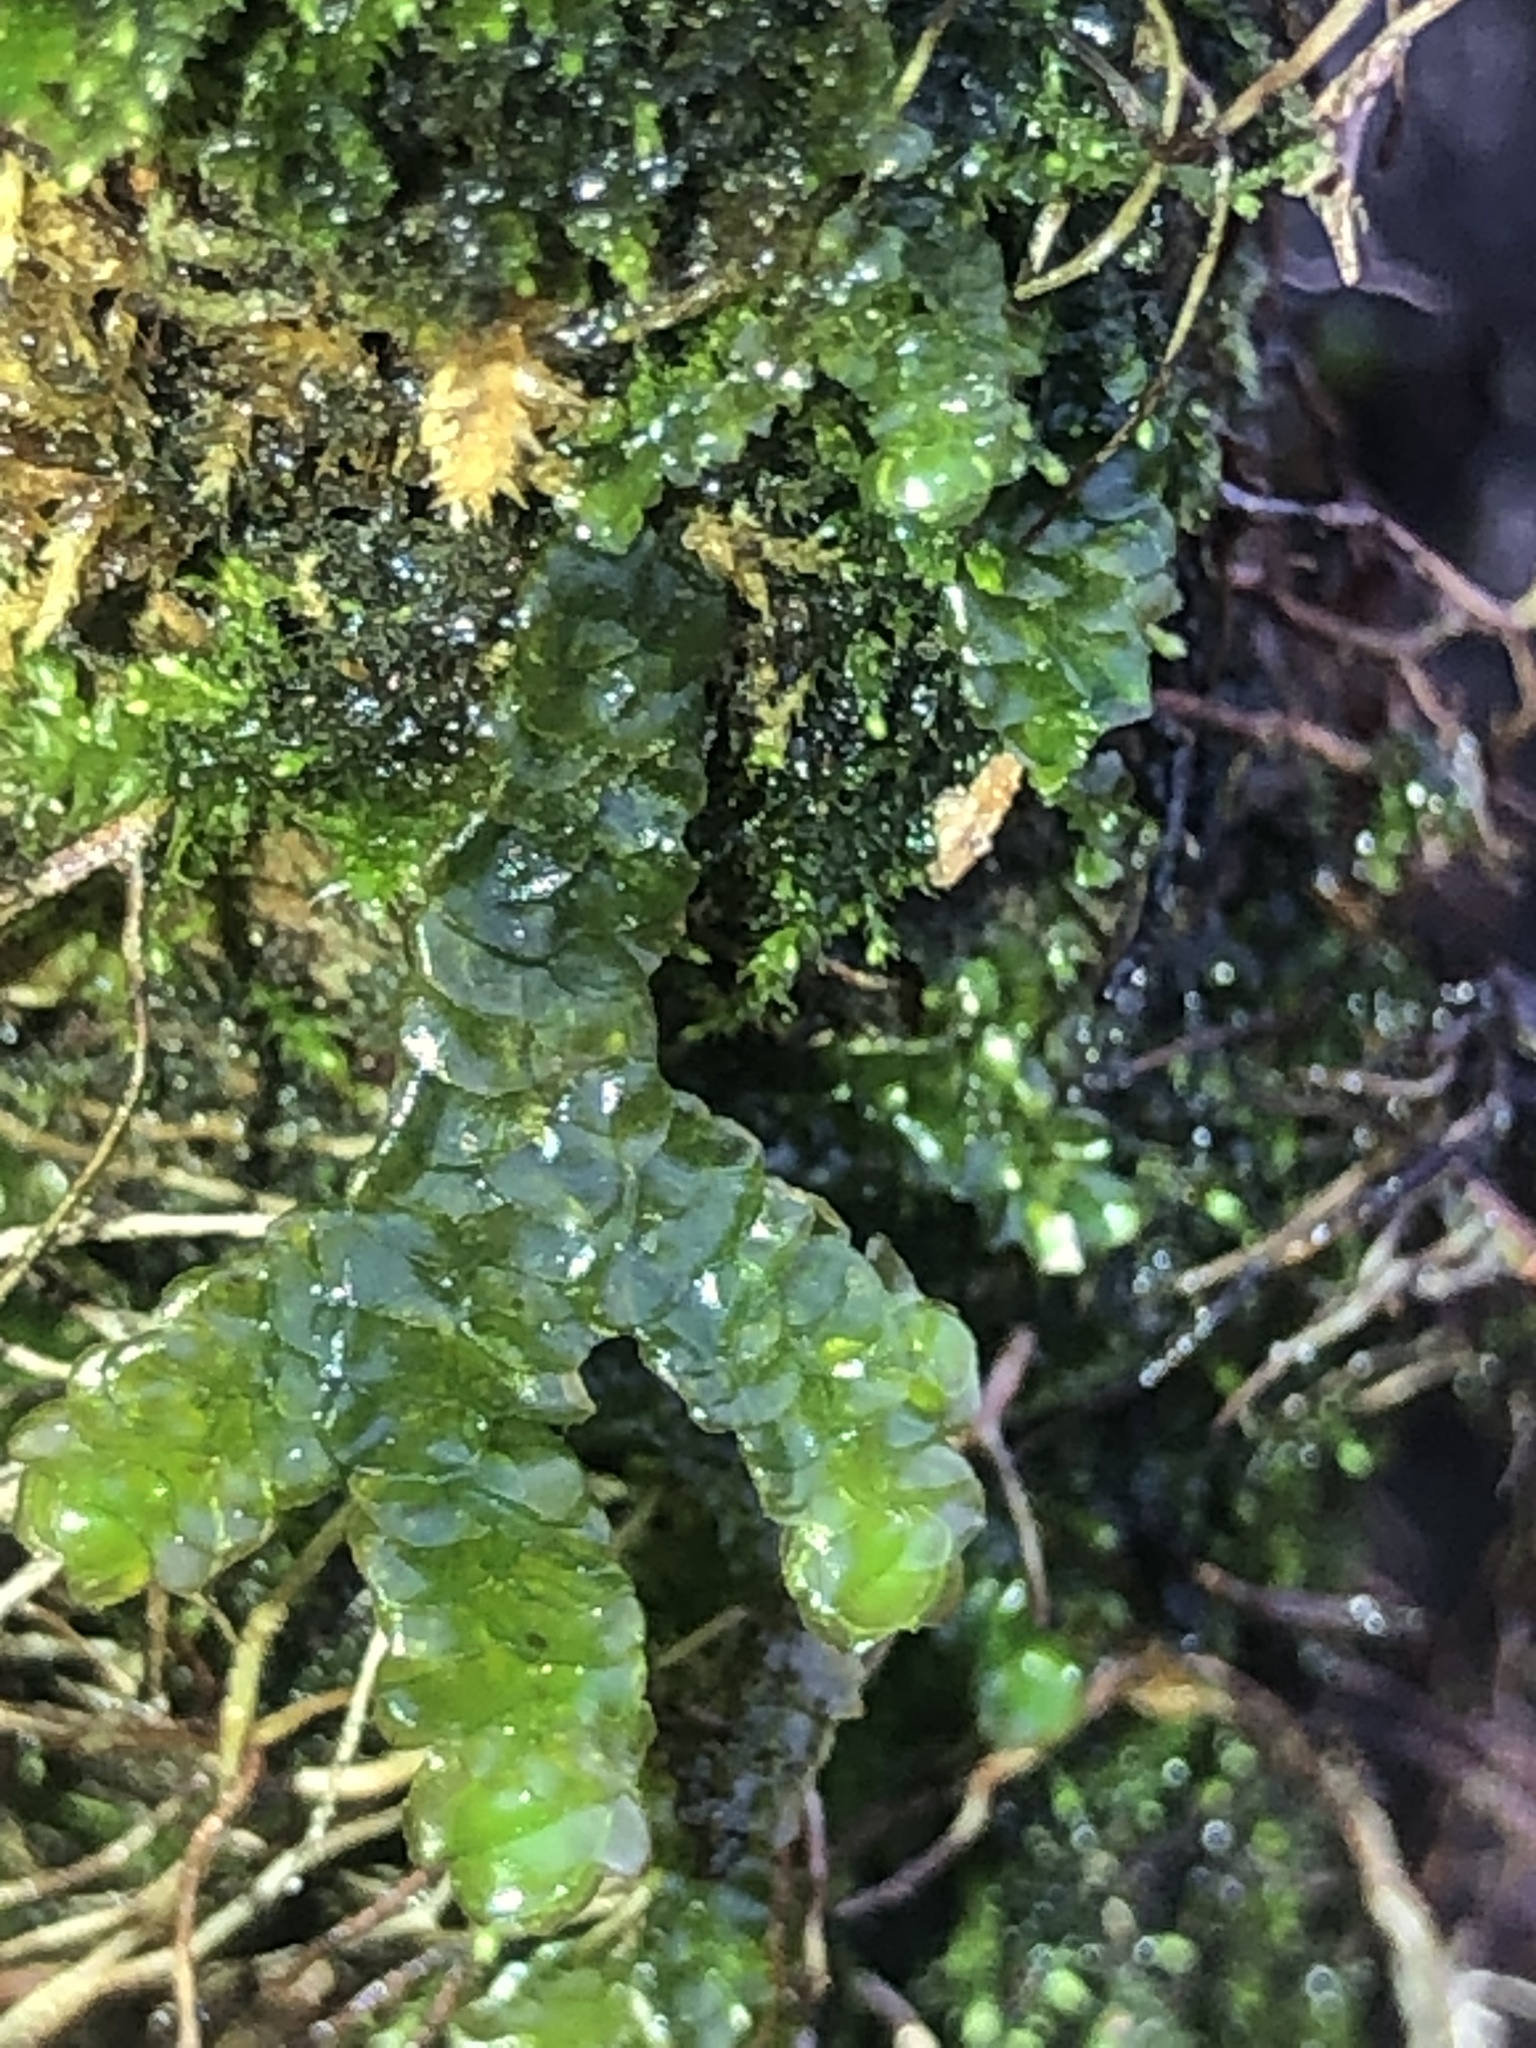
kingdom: Plantae
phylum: Marchantiophyta
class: Jungermanniopsida
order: Porellales
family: Porellaceae
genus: Porella
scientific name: Porella platyphylla
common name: Wall scalewort
